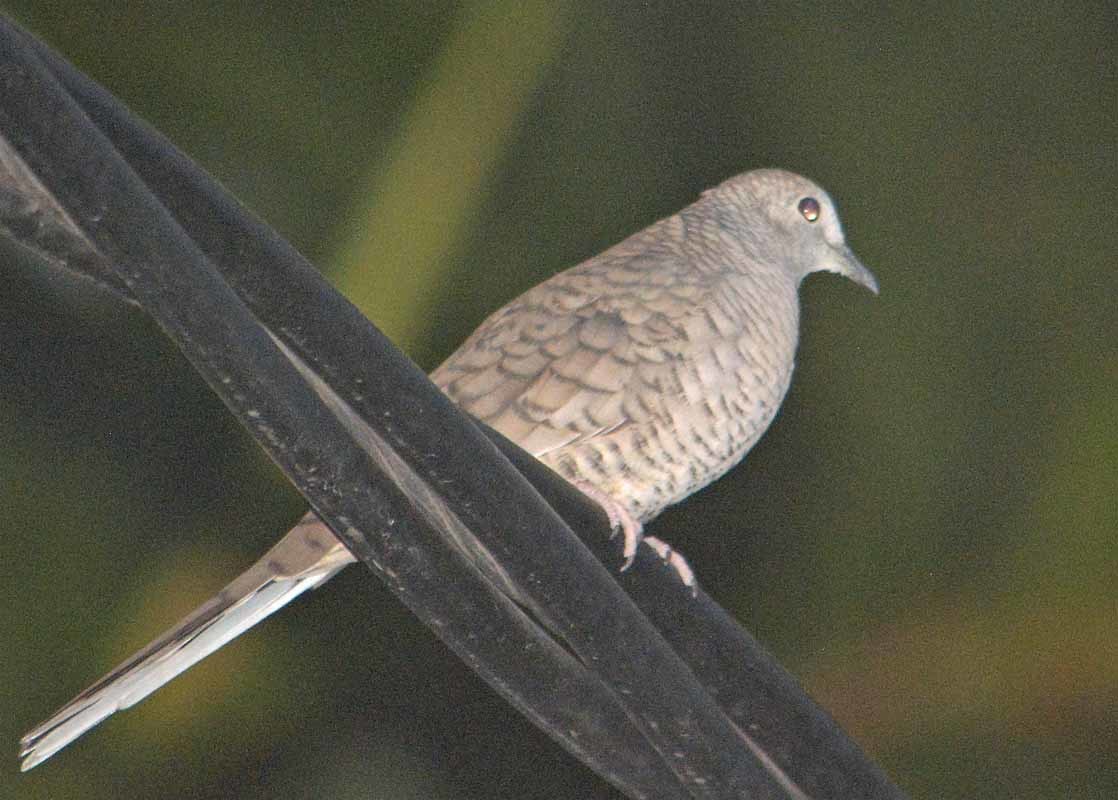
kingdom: Animalia
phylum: Chordata
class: Aves
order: Columbiformes
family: Columbidae
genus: Columbina
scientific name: Columbina inca
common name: Inca dove
